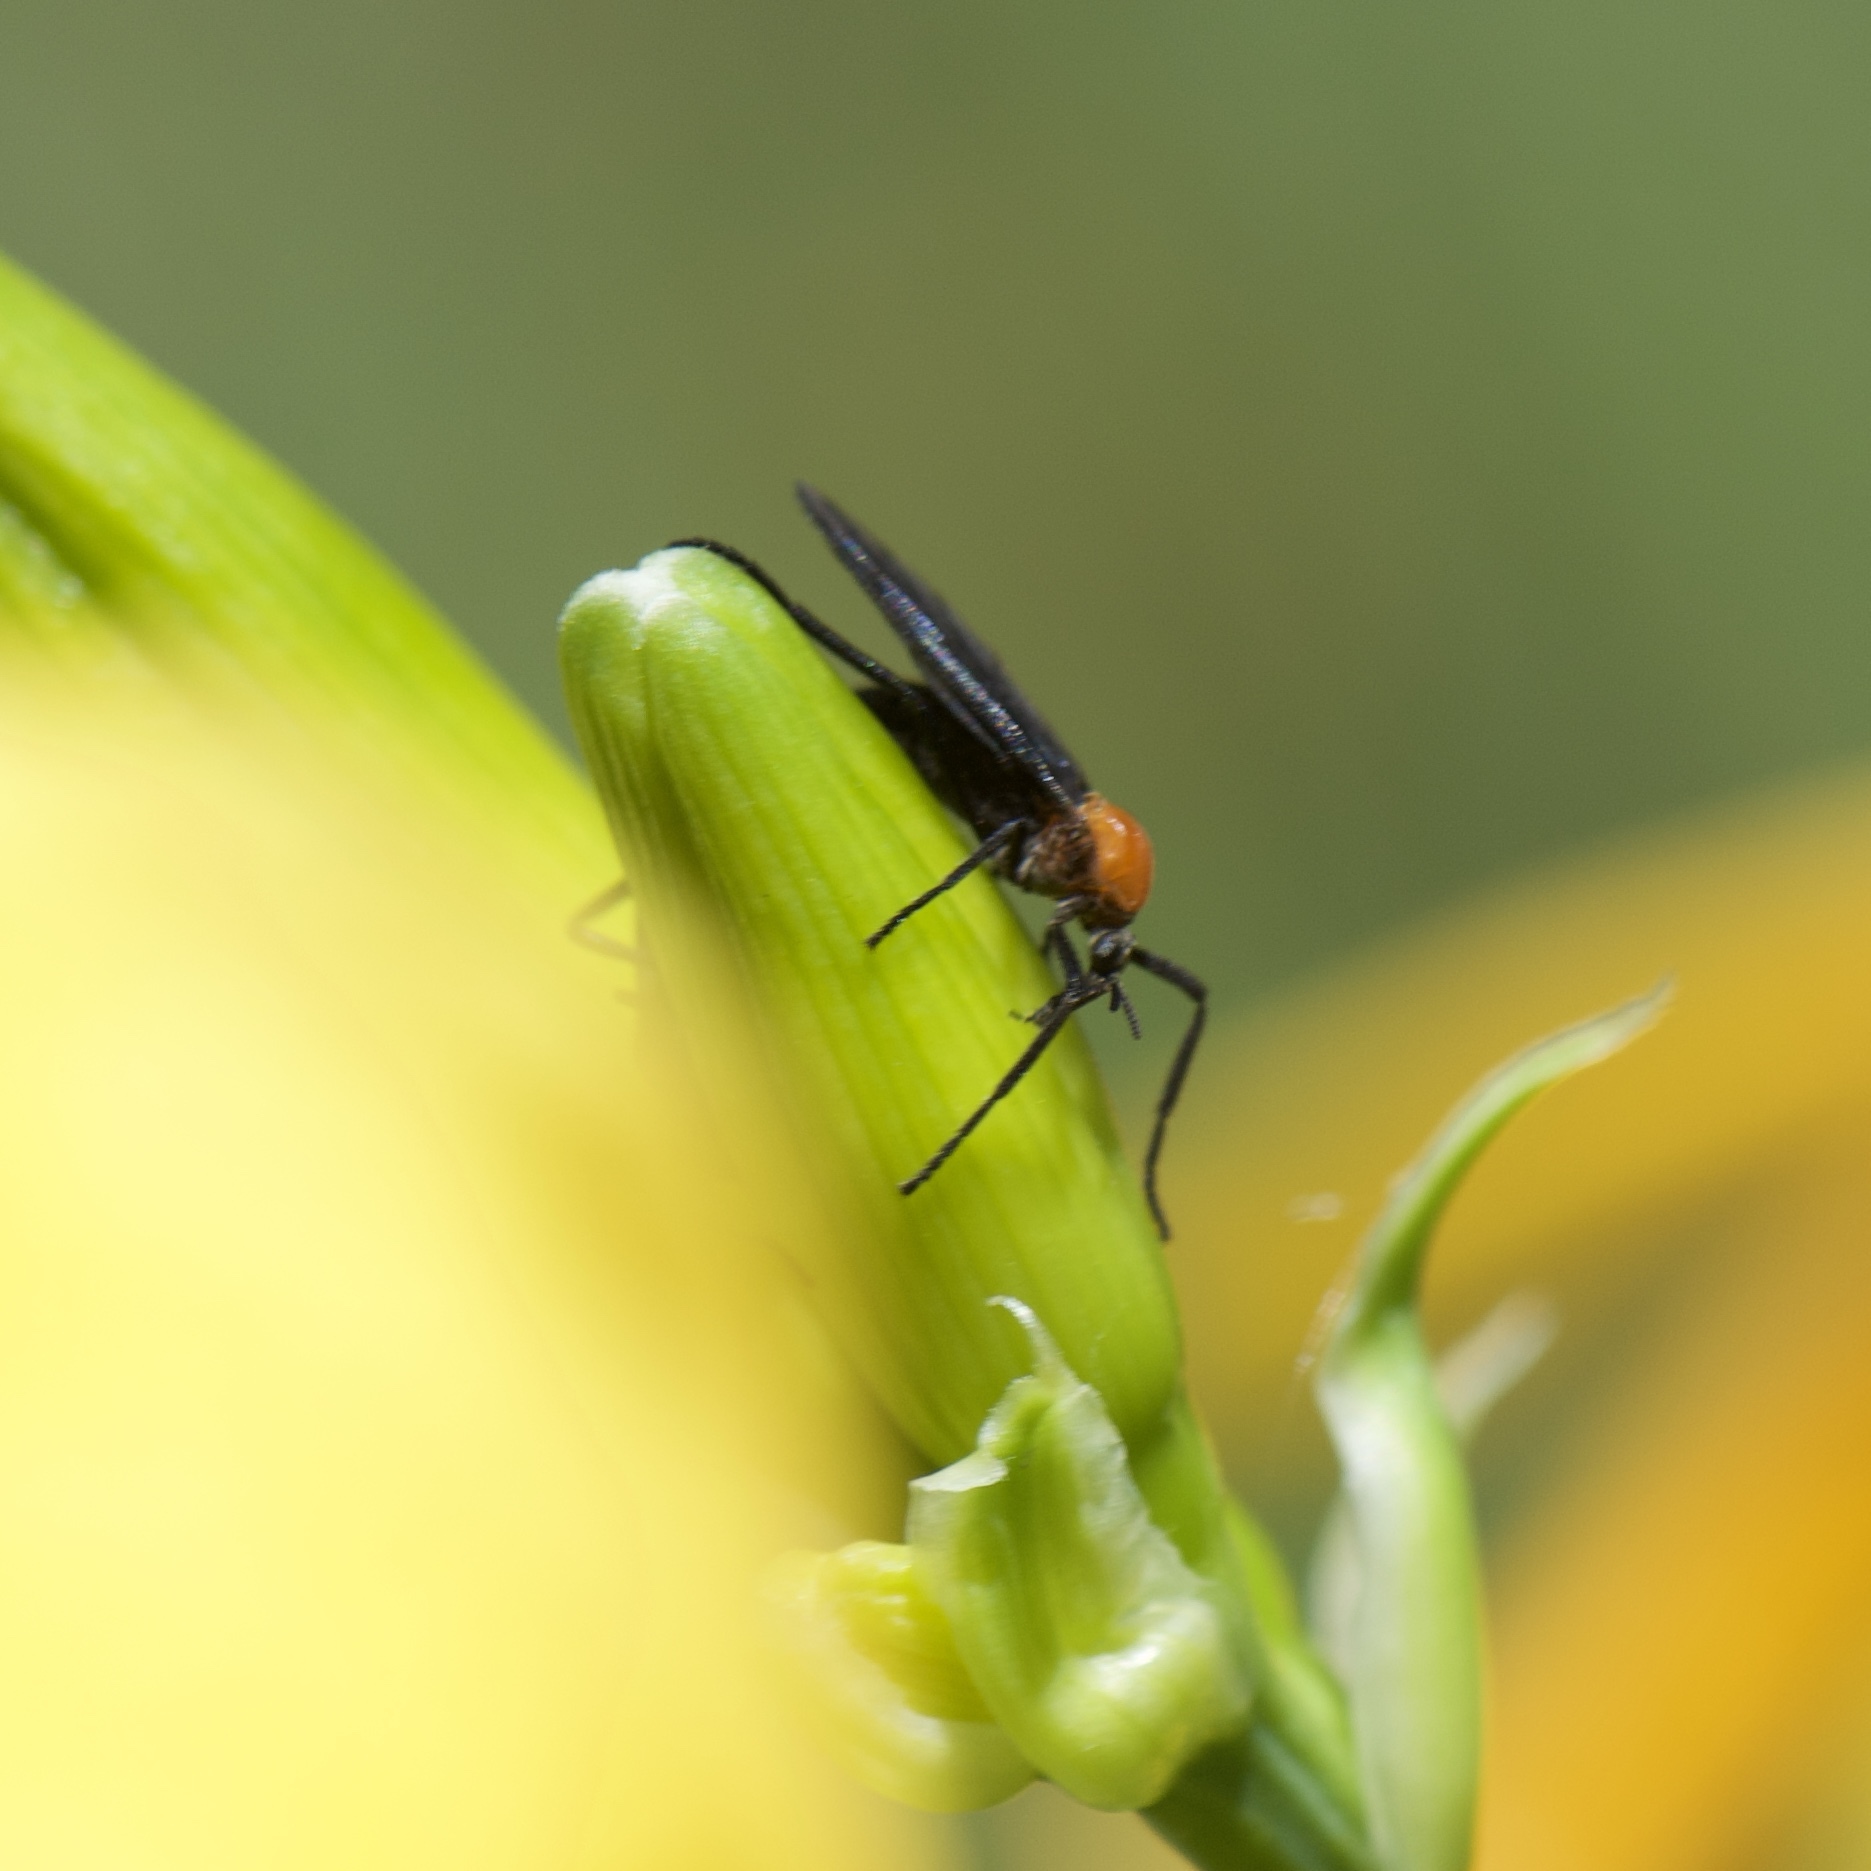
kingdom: Animalia
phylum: Arthropoda
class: Insecta
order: Diptera
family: Bibionidae
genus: Plecia
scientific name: Plecia nearctica
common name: March fly
